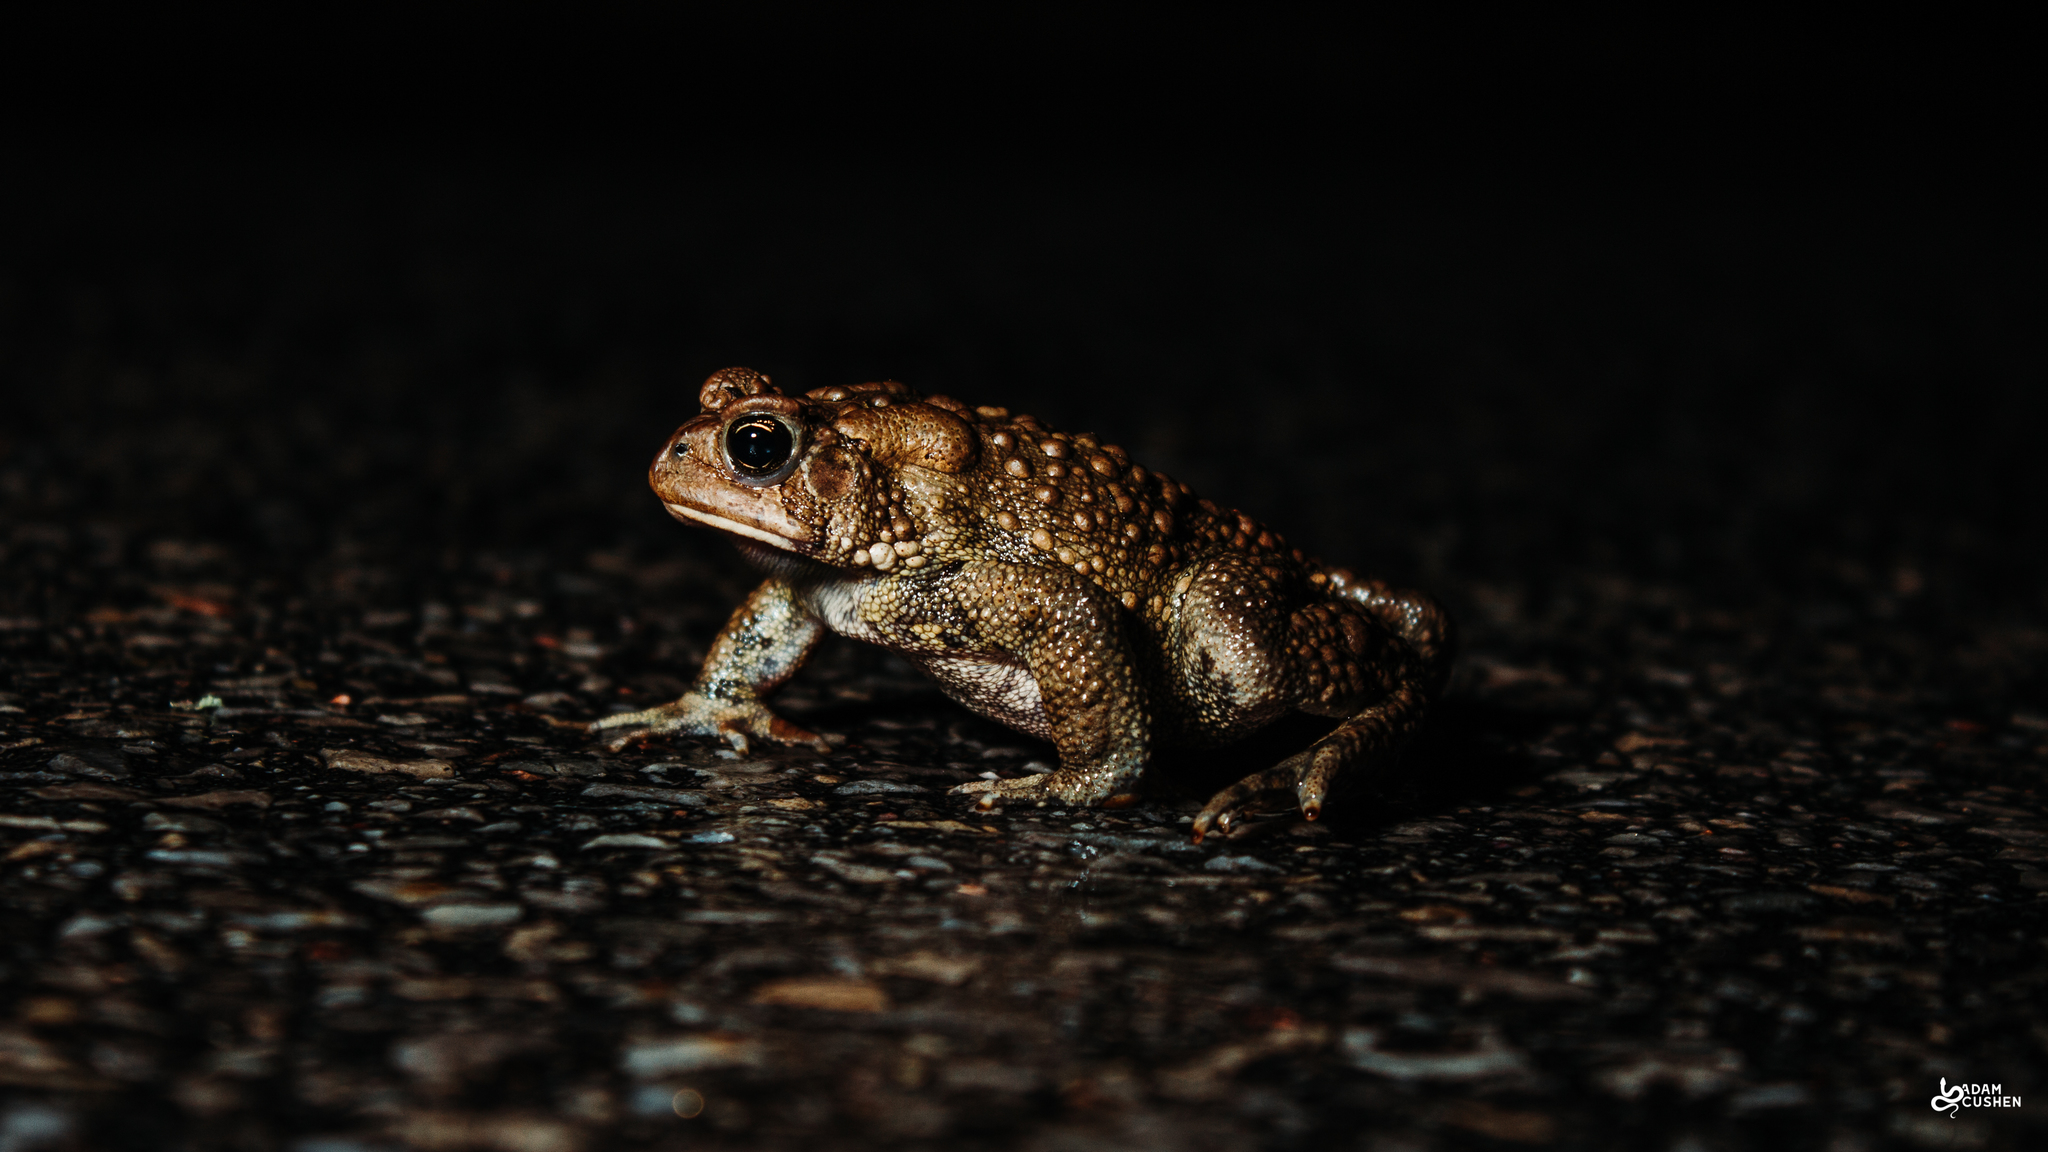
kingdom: Animalia
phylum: Chordata
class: Amphibia
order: Anura
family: Bufonidae
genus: Anaxyrus
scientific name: Anaxyrus americanus
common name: American toad
